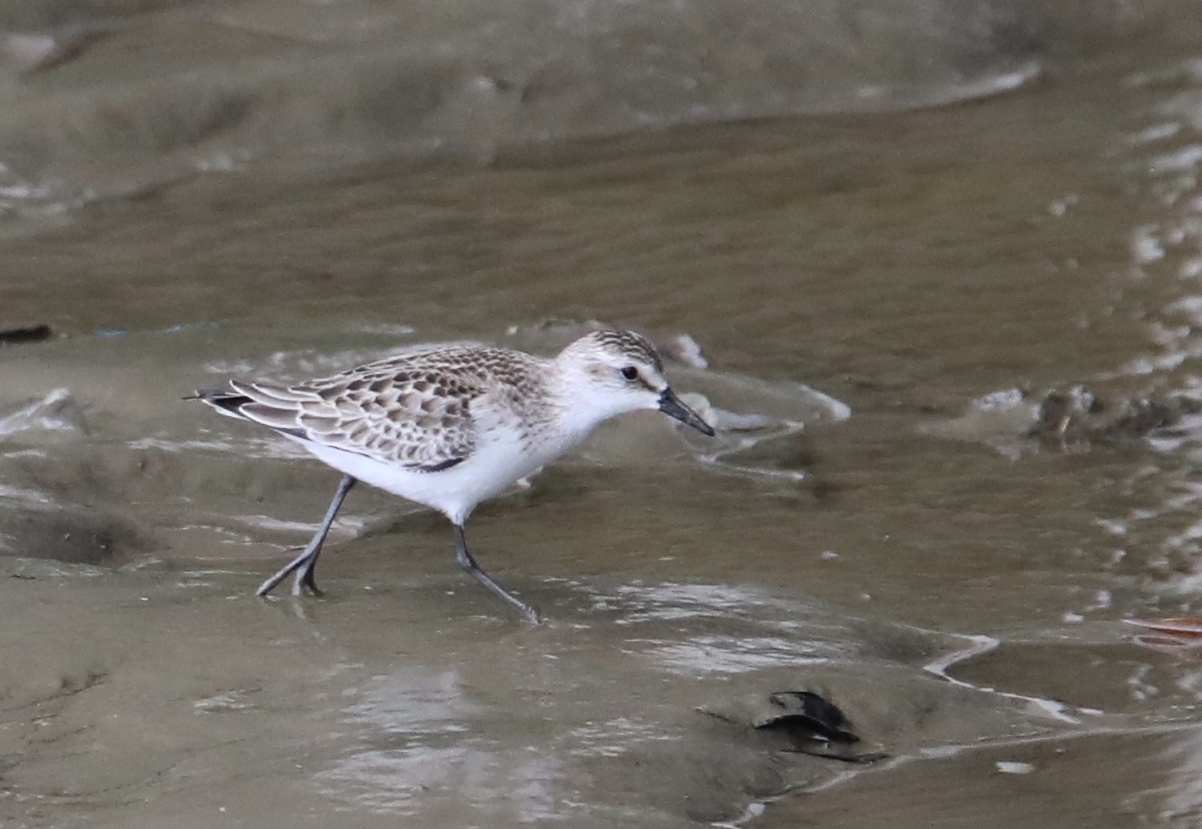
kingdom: Animalia
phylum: Chordata
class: Aves
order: Charadriiformes
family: Scolopacidae
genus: Calidris
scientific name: Calidris pusilla
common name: Semipalmated sandpiper
